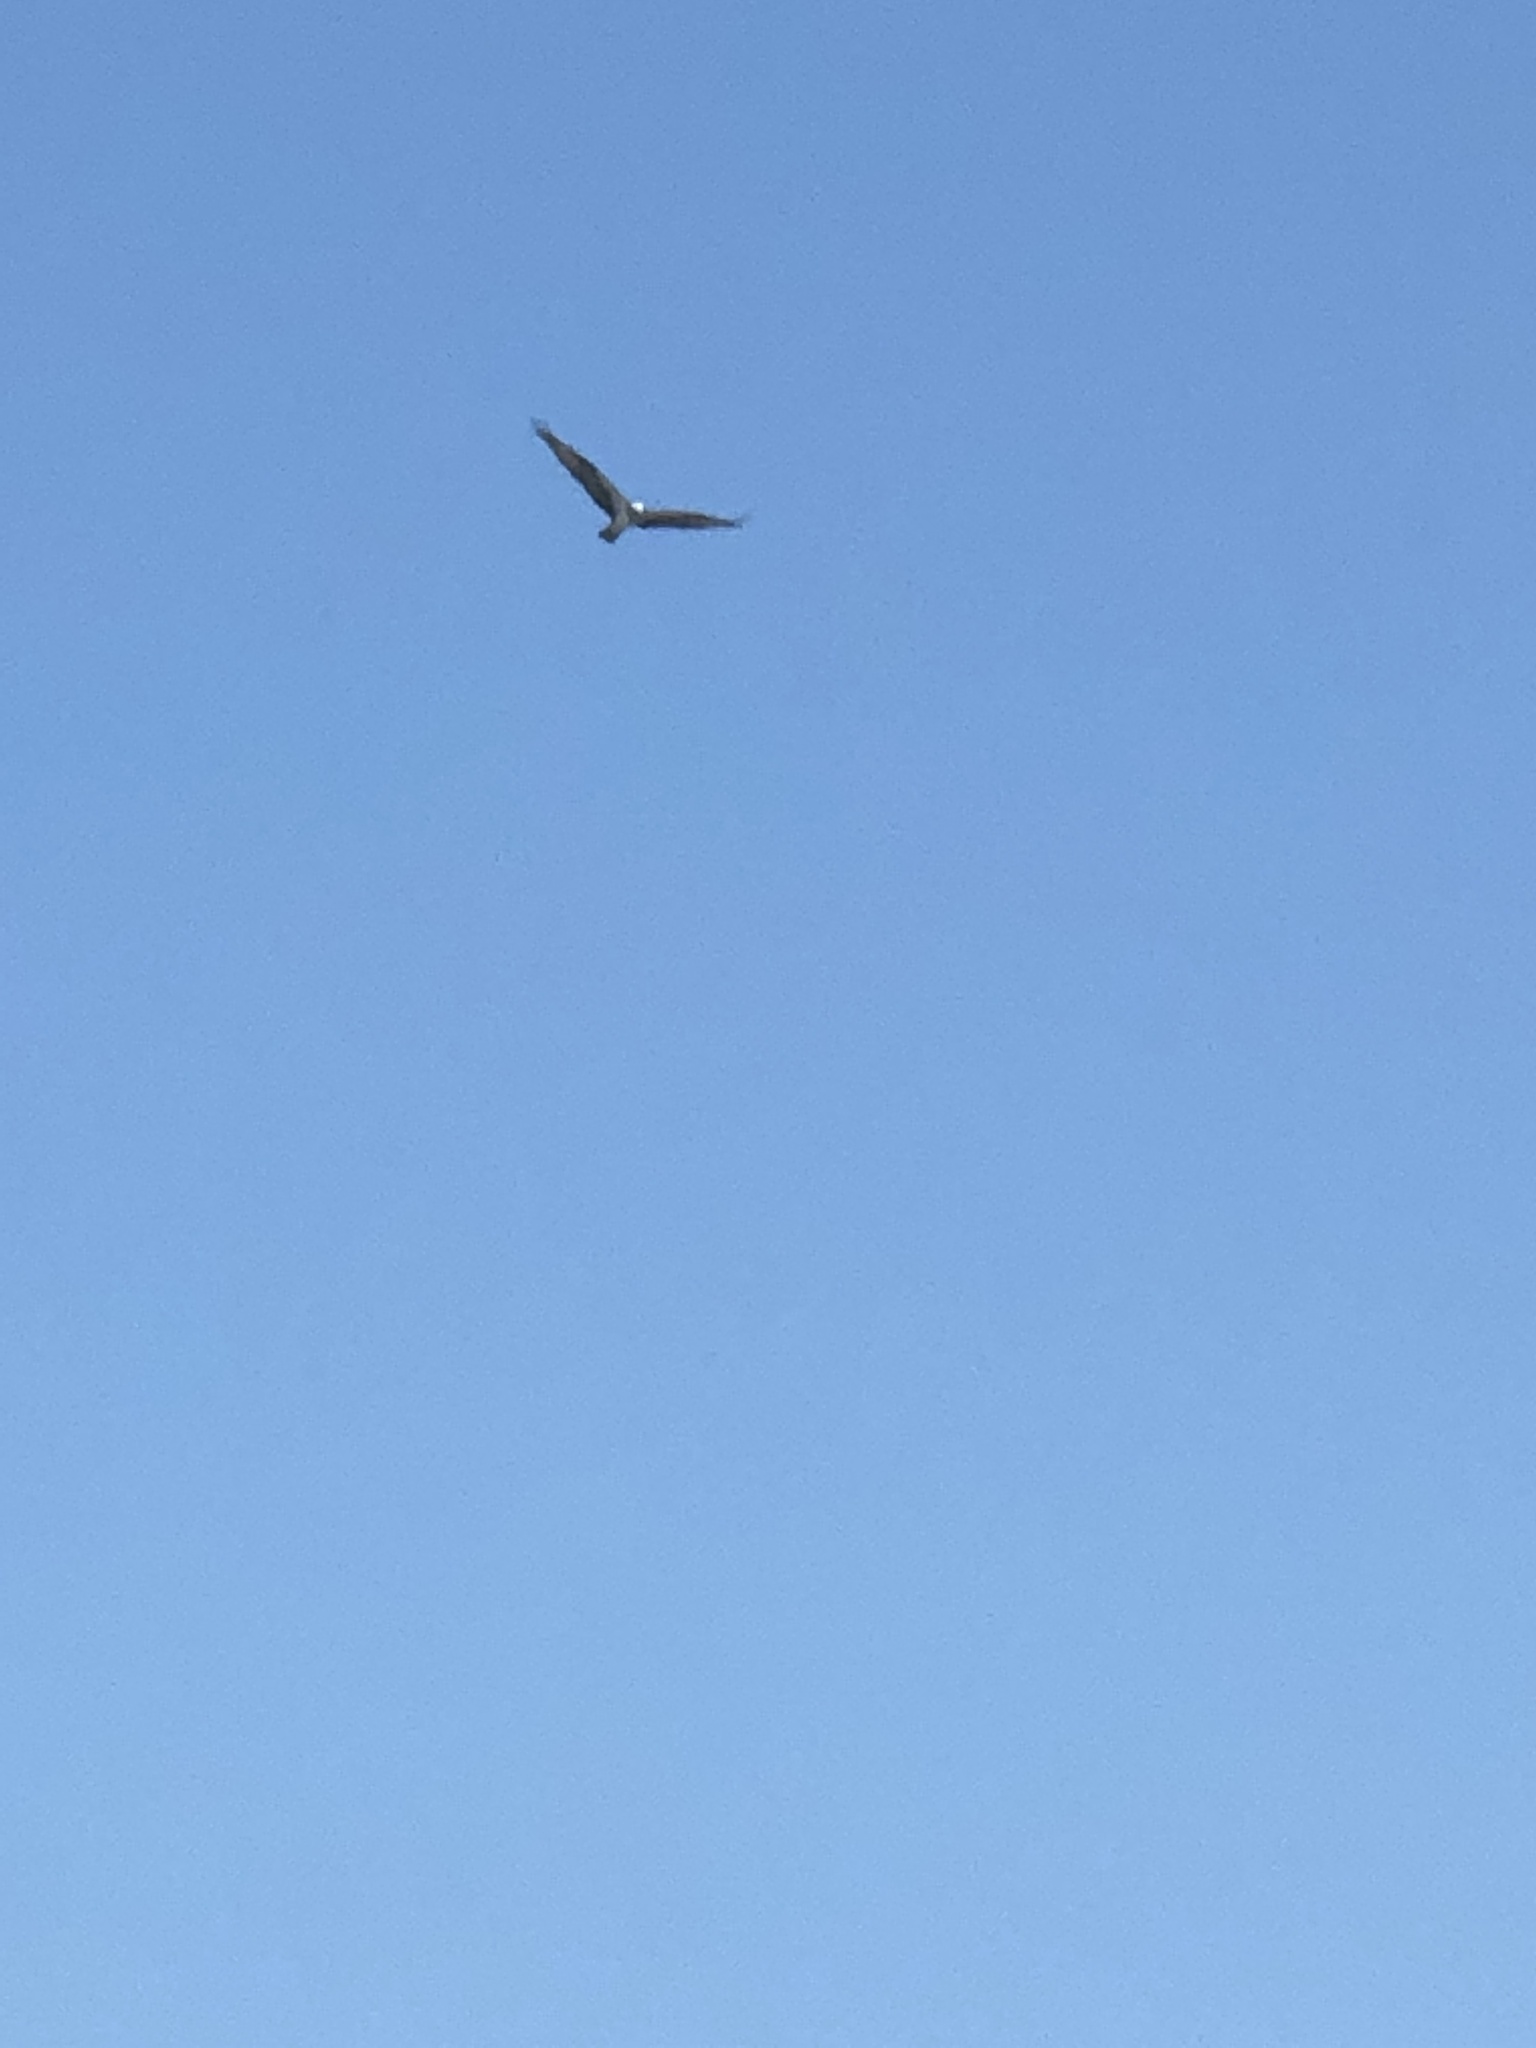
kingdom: Animalia
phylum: Chordata
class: Aves
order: Accipitriformes
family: Pandionidae
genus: Pandion
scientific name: Pandion haliaetus
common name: Osprey
